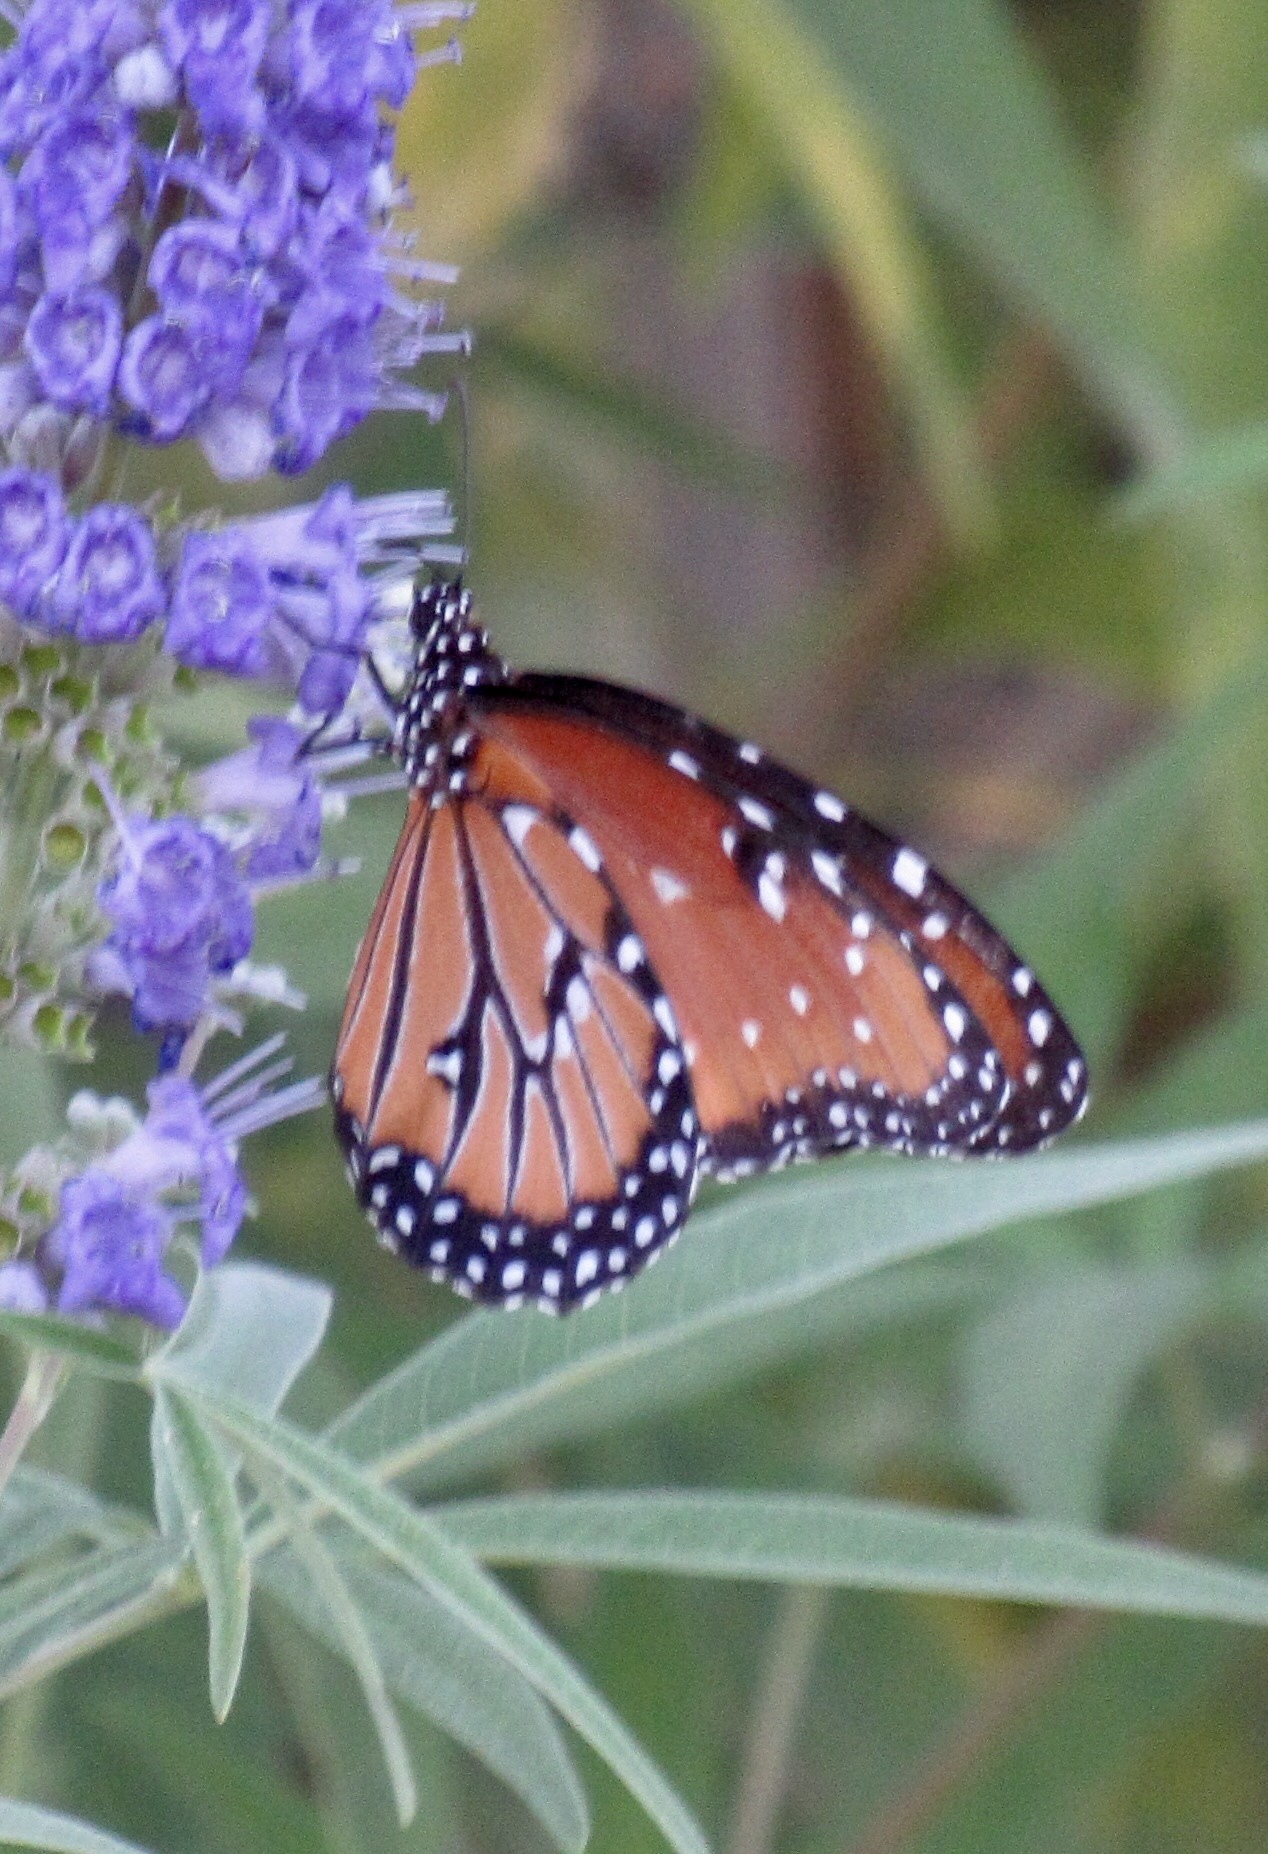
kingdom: Animalia
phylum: Arthropoda
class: Insecta
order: Lepidoptera
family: Nymphalidae
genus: Danaus
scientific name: Danaus gilippus
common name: Queen
